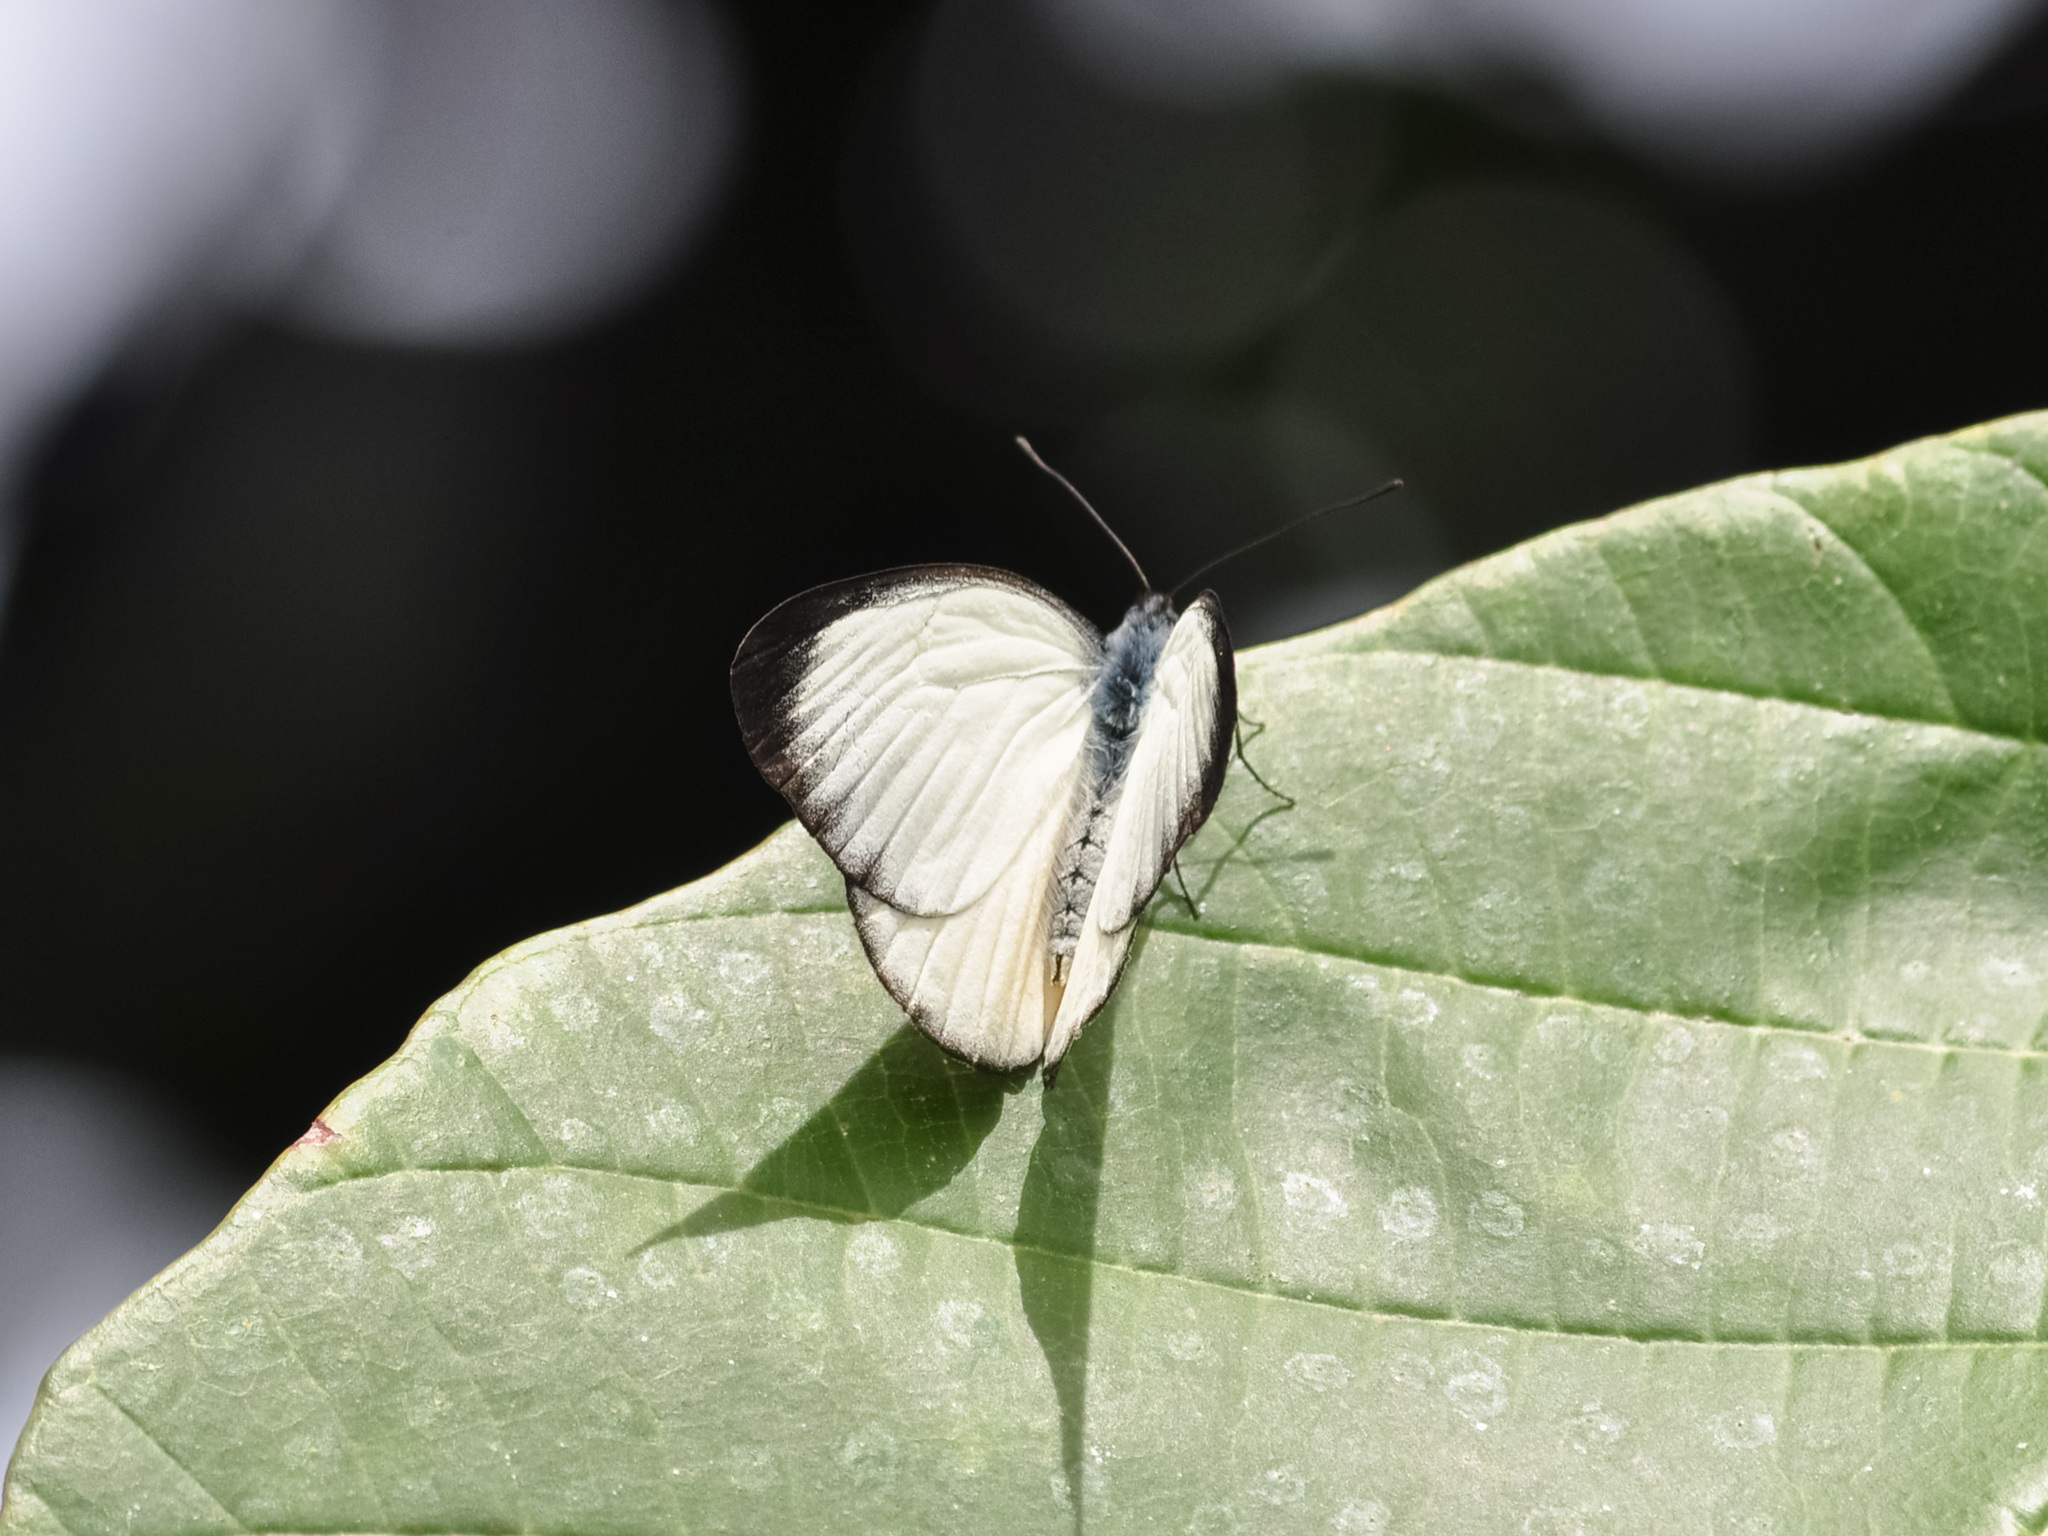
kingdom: Animalia
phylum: Arthropoda
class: Insecta
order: Lepidoptera
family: Pieridae
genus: Delias
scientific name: Delias descombesi
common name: Red-spot jezebel
